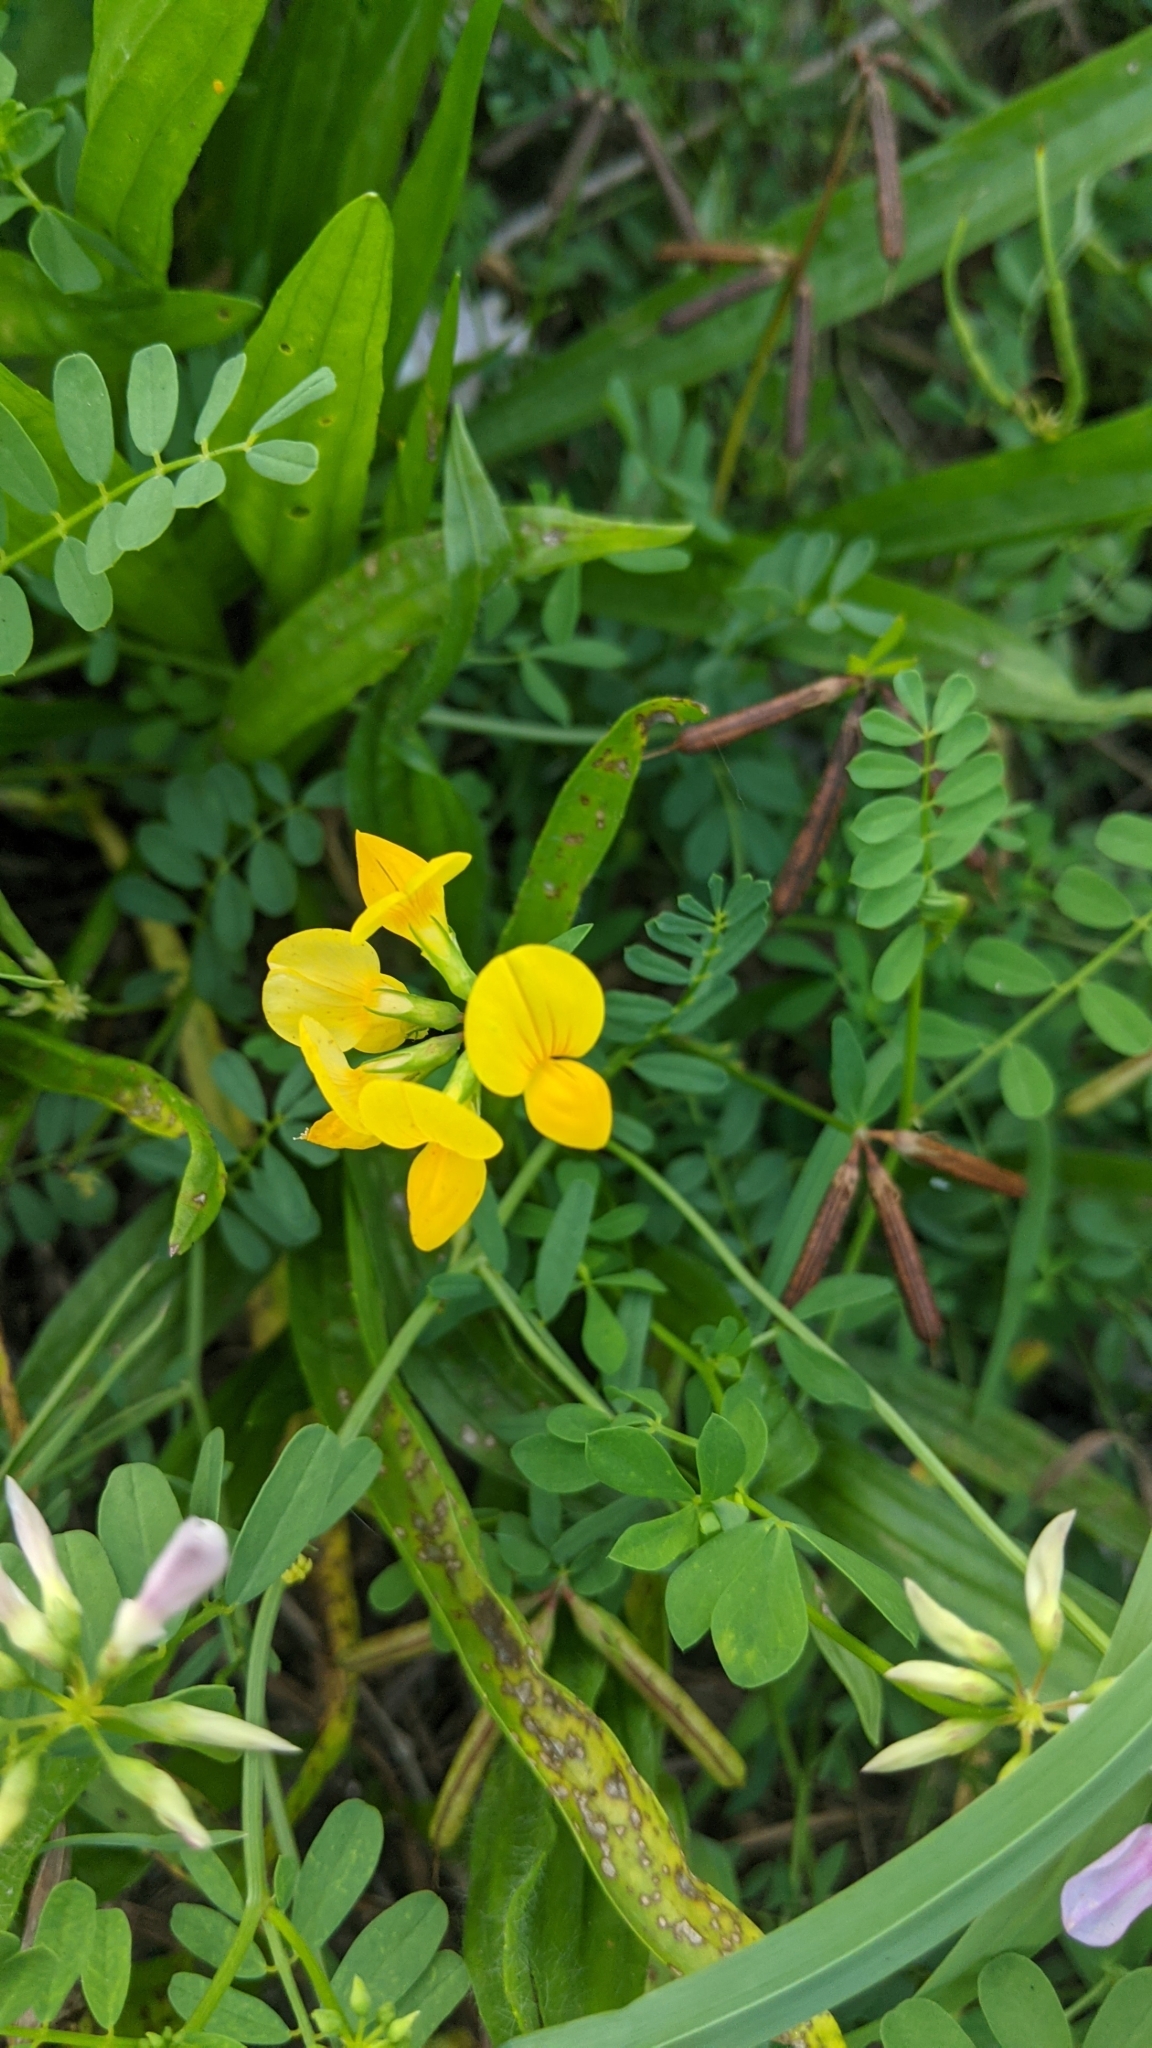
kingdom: Plantae
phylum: Tracheophyta
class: Magnoliopsida
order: Fabales
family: Fabaceae
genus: Lotus
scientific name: Lotus corniculatus
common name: Common bird's-foot-trefoil
